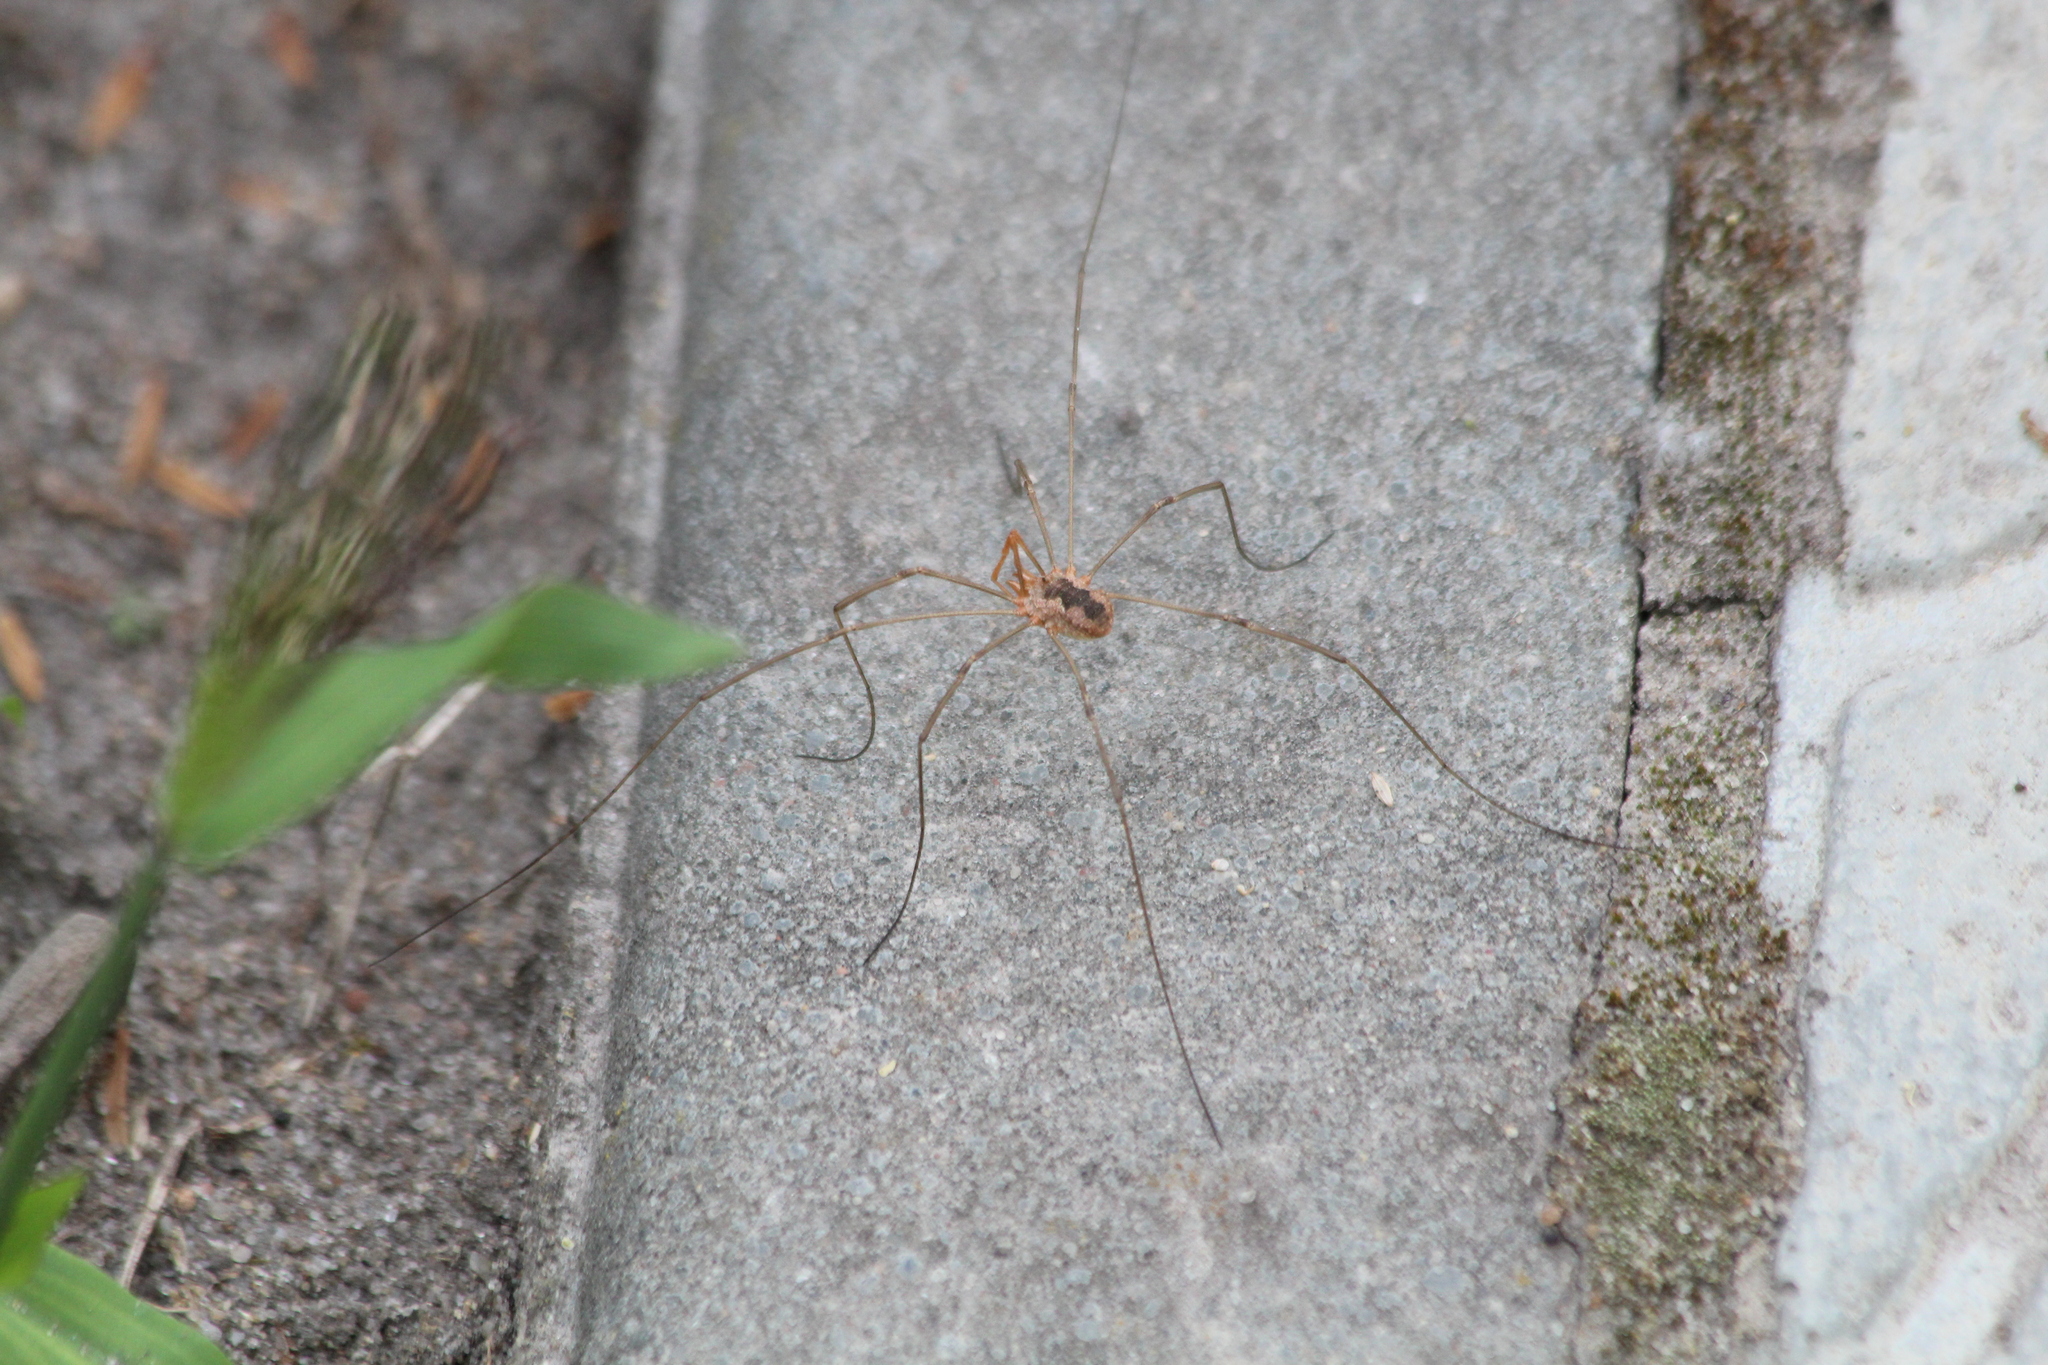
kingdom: Animalia
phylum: Arthropoda
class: Arachnida
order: Opiliones
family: Phalangiidae
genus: Phalangium
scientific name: Phalangium opilio
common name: Daddy longleg
